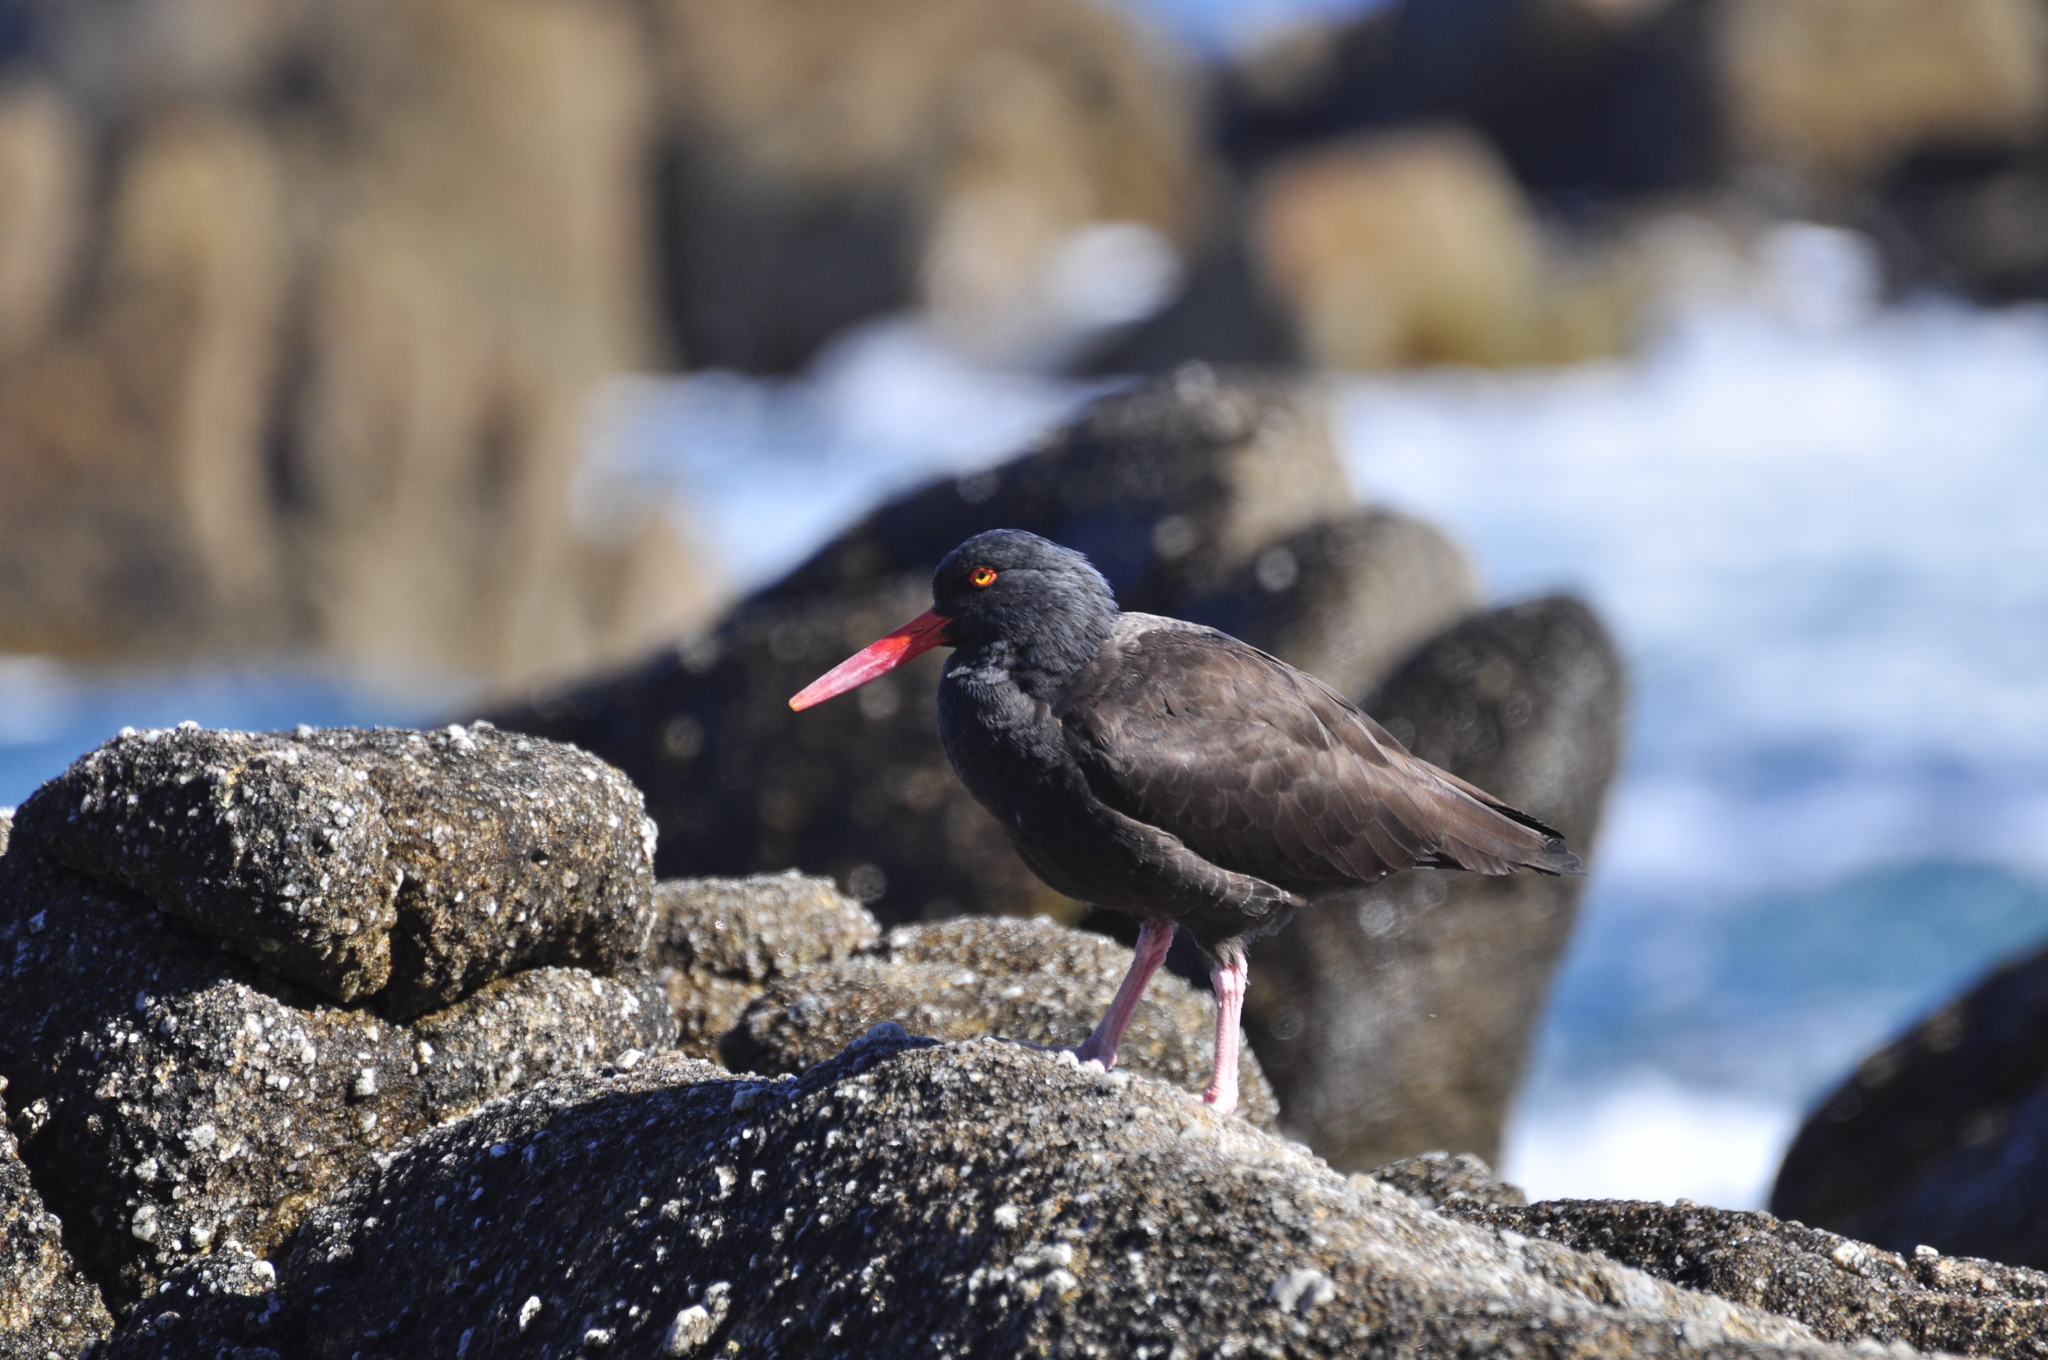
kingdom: Animalia
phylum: Chordata
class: Aves
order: Charadriiformes
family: Haematopodidae
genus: Haematopus
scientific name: Haematopus bachmani
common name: Black oystercatcher
